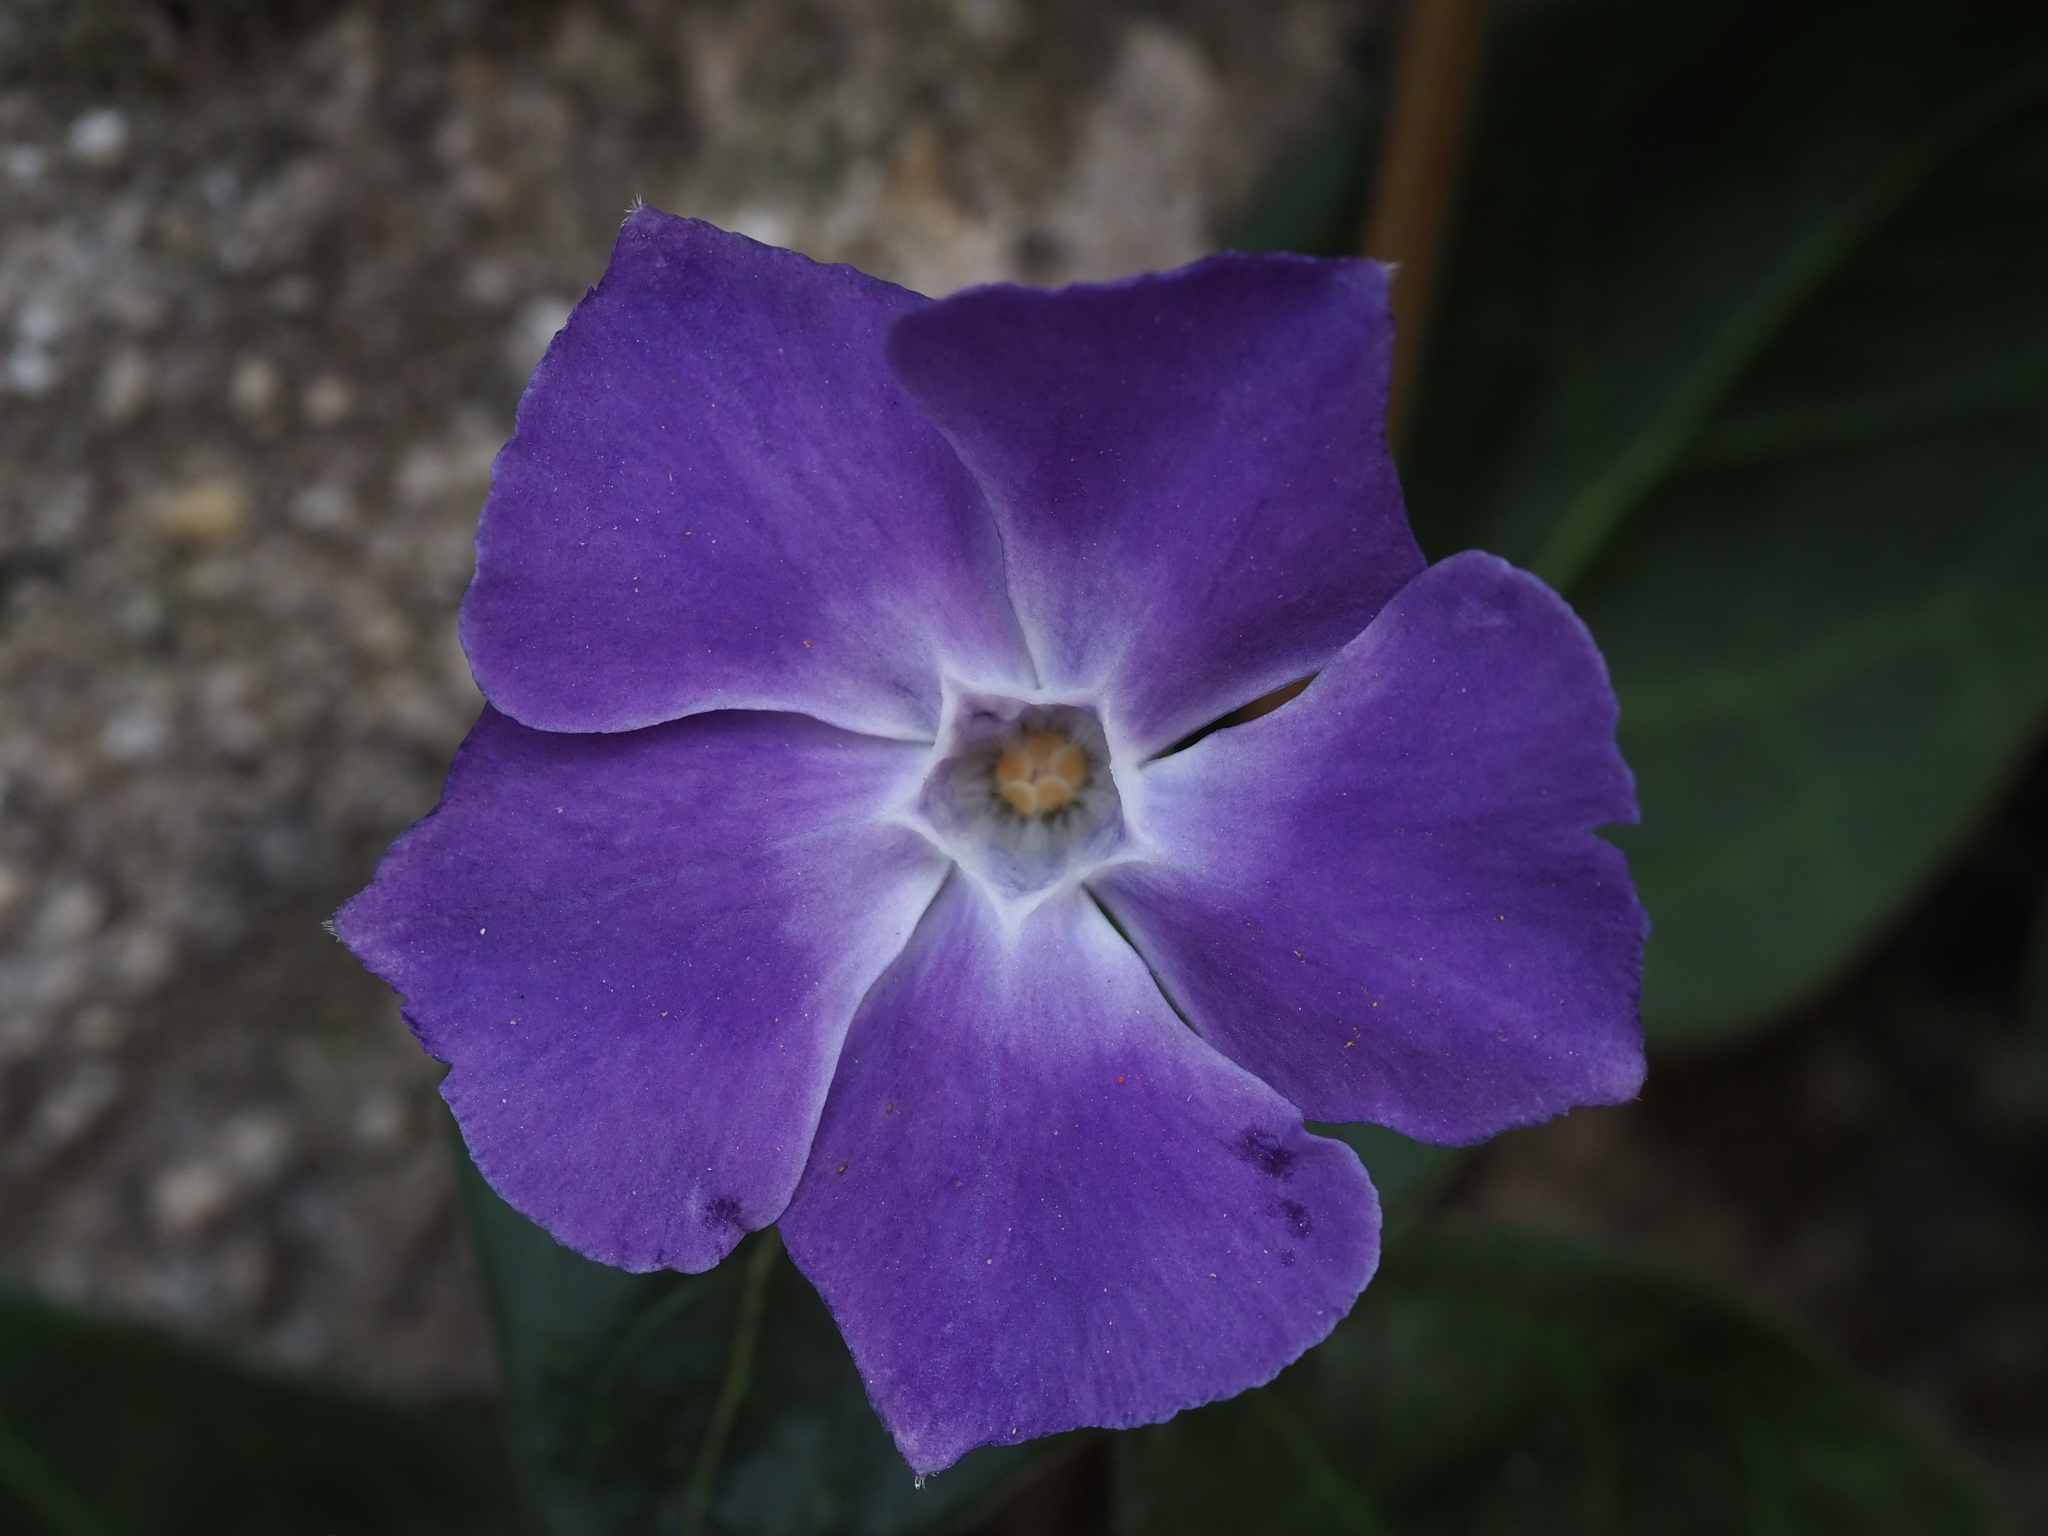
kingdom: Plantae
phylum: Tracheophyta
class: Magnoliopsida
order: Gentianales
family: Apocynaceae
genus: Vinca
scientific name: Vinca major
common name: Greater periwinkle
